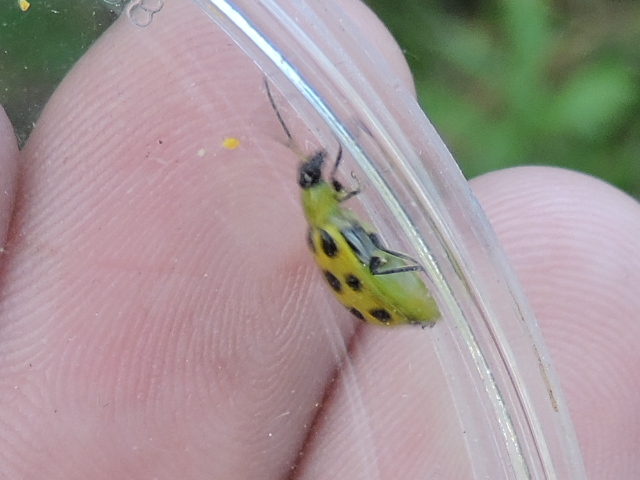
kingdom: Animalia
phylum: Arthropoda
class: Insecta
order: Coleoptera
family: Chrysomelidae
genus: Diabrotica
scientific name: Diabrotica undecimpunctata
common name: Spotted cucumber beetle
